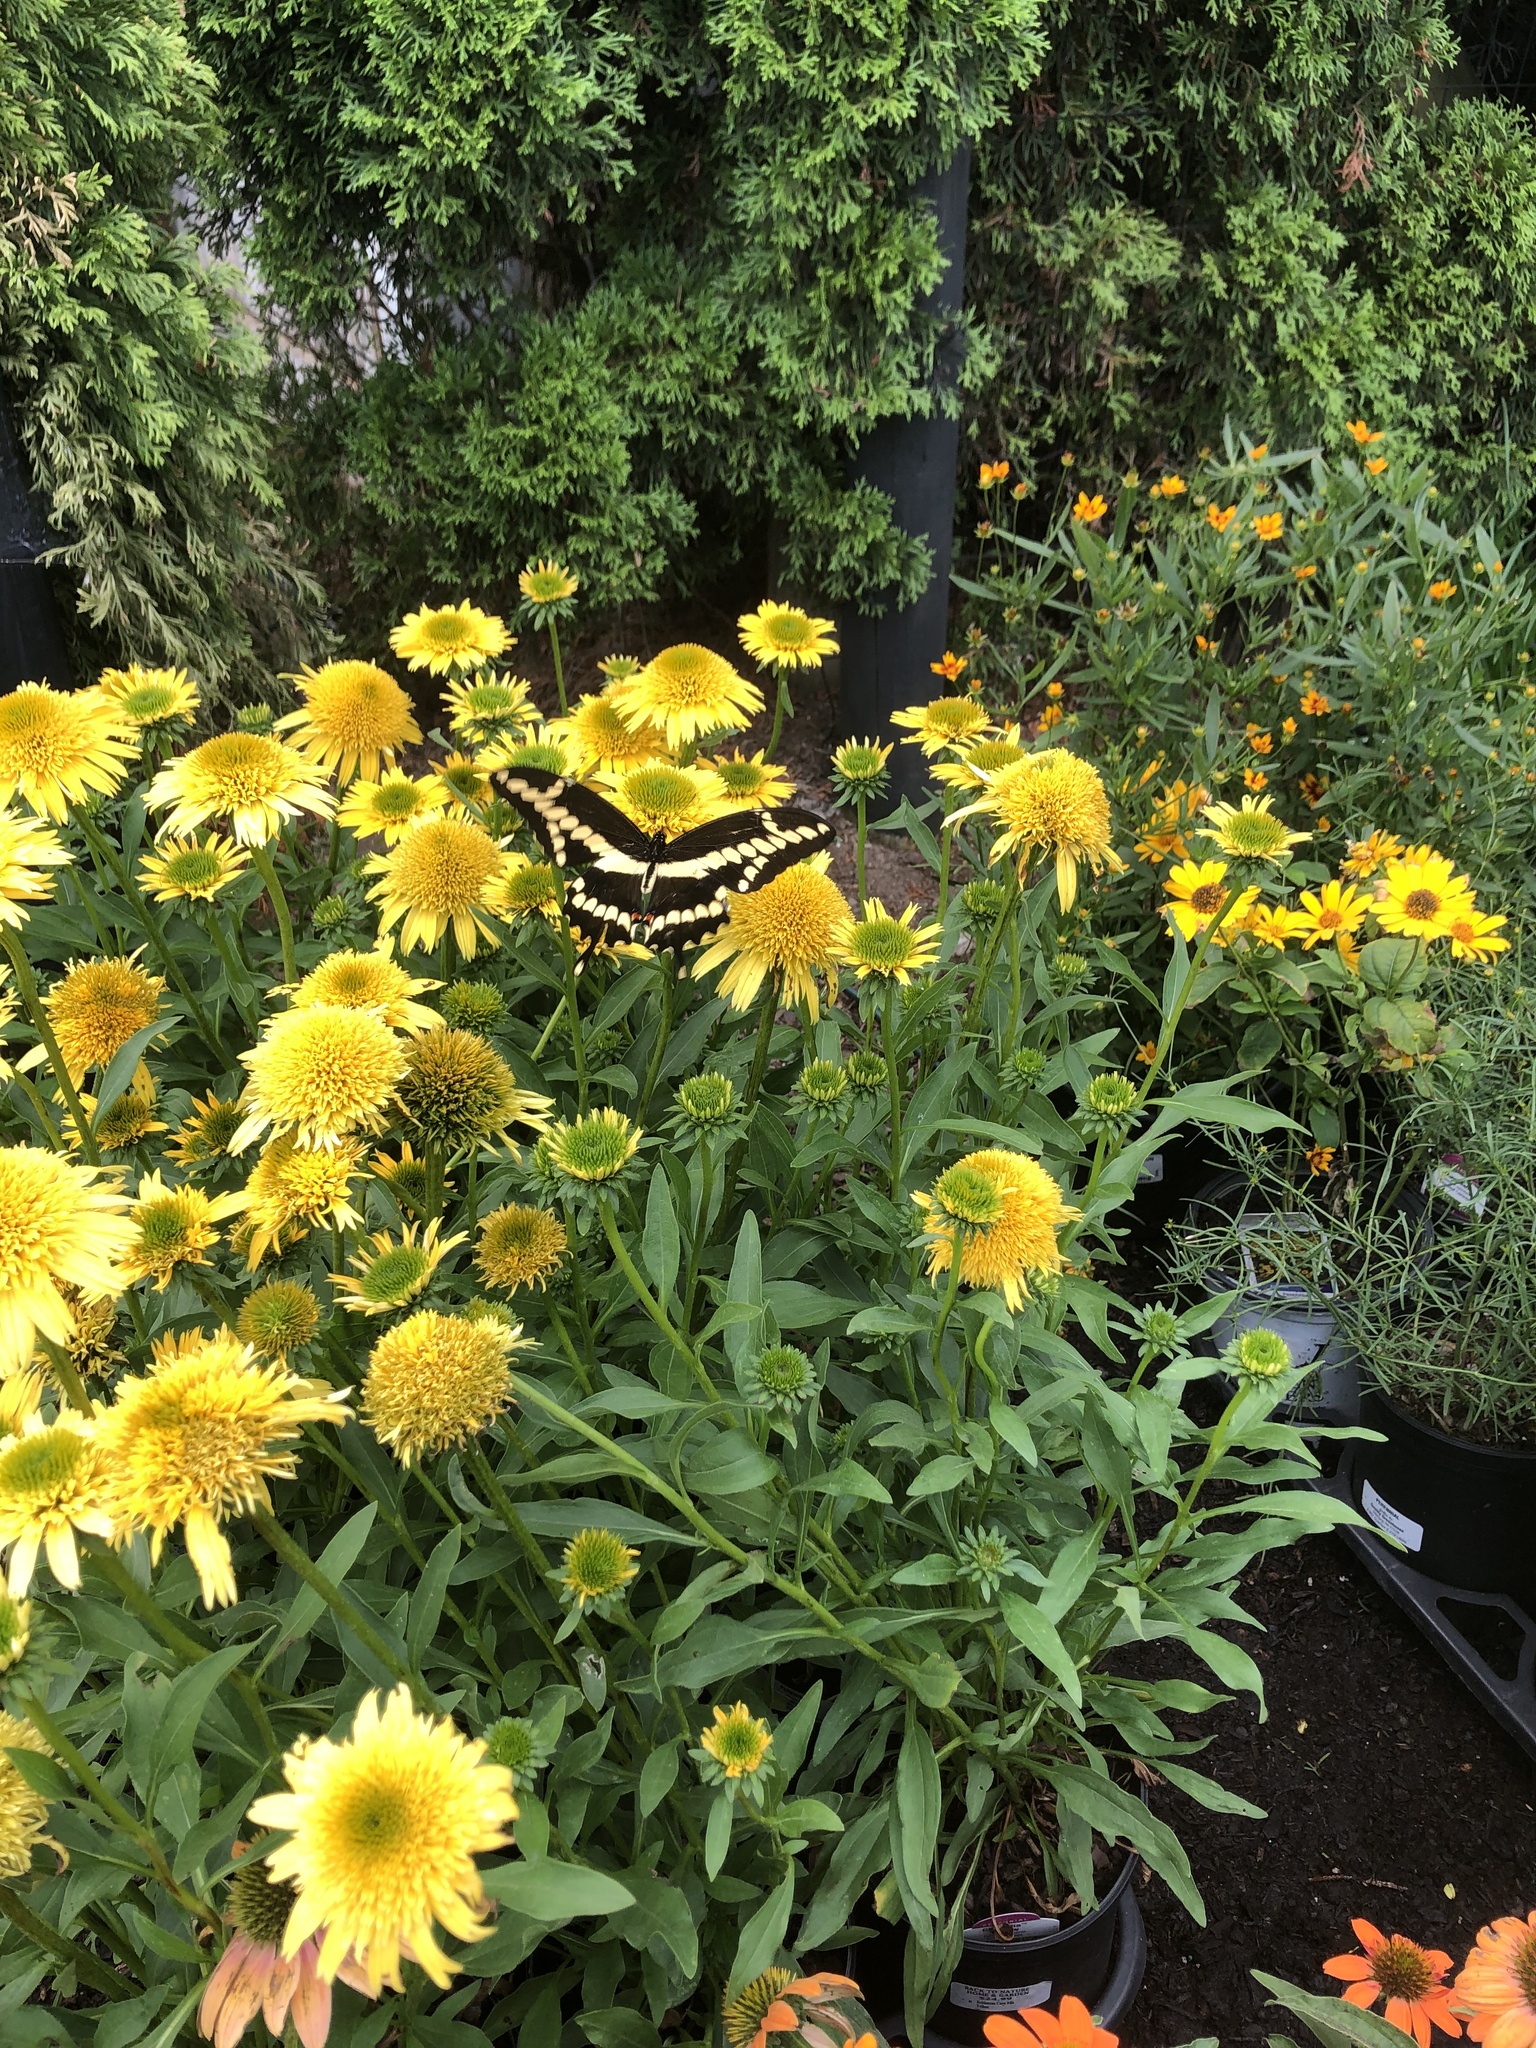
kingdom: Animalia
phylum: Arthropoda
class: Insecta
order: Lepidoptera
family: Papilionidae
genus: Papilio
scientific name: Papilio cresphontes
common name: Giant swallowtail
